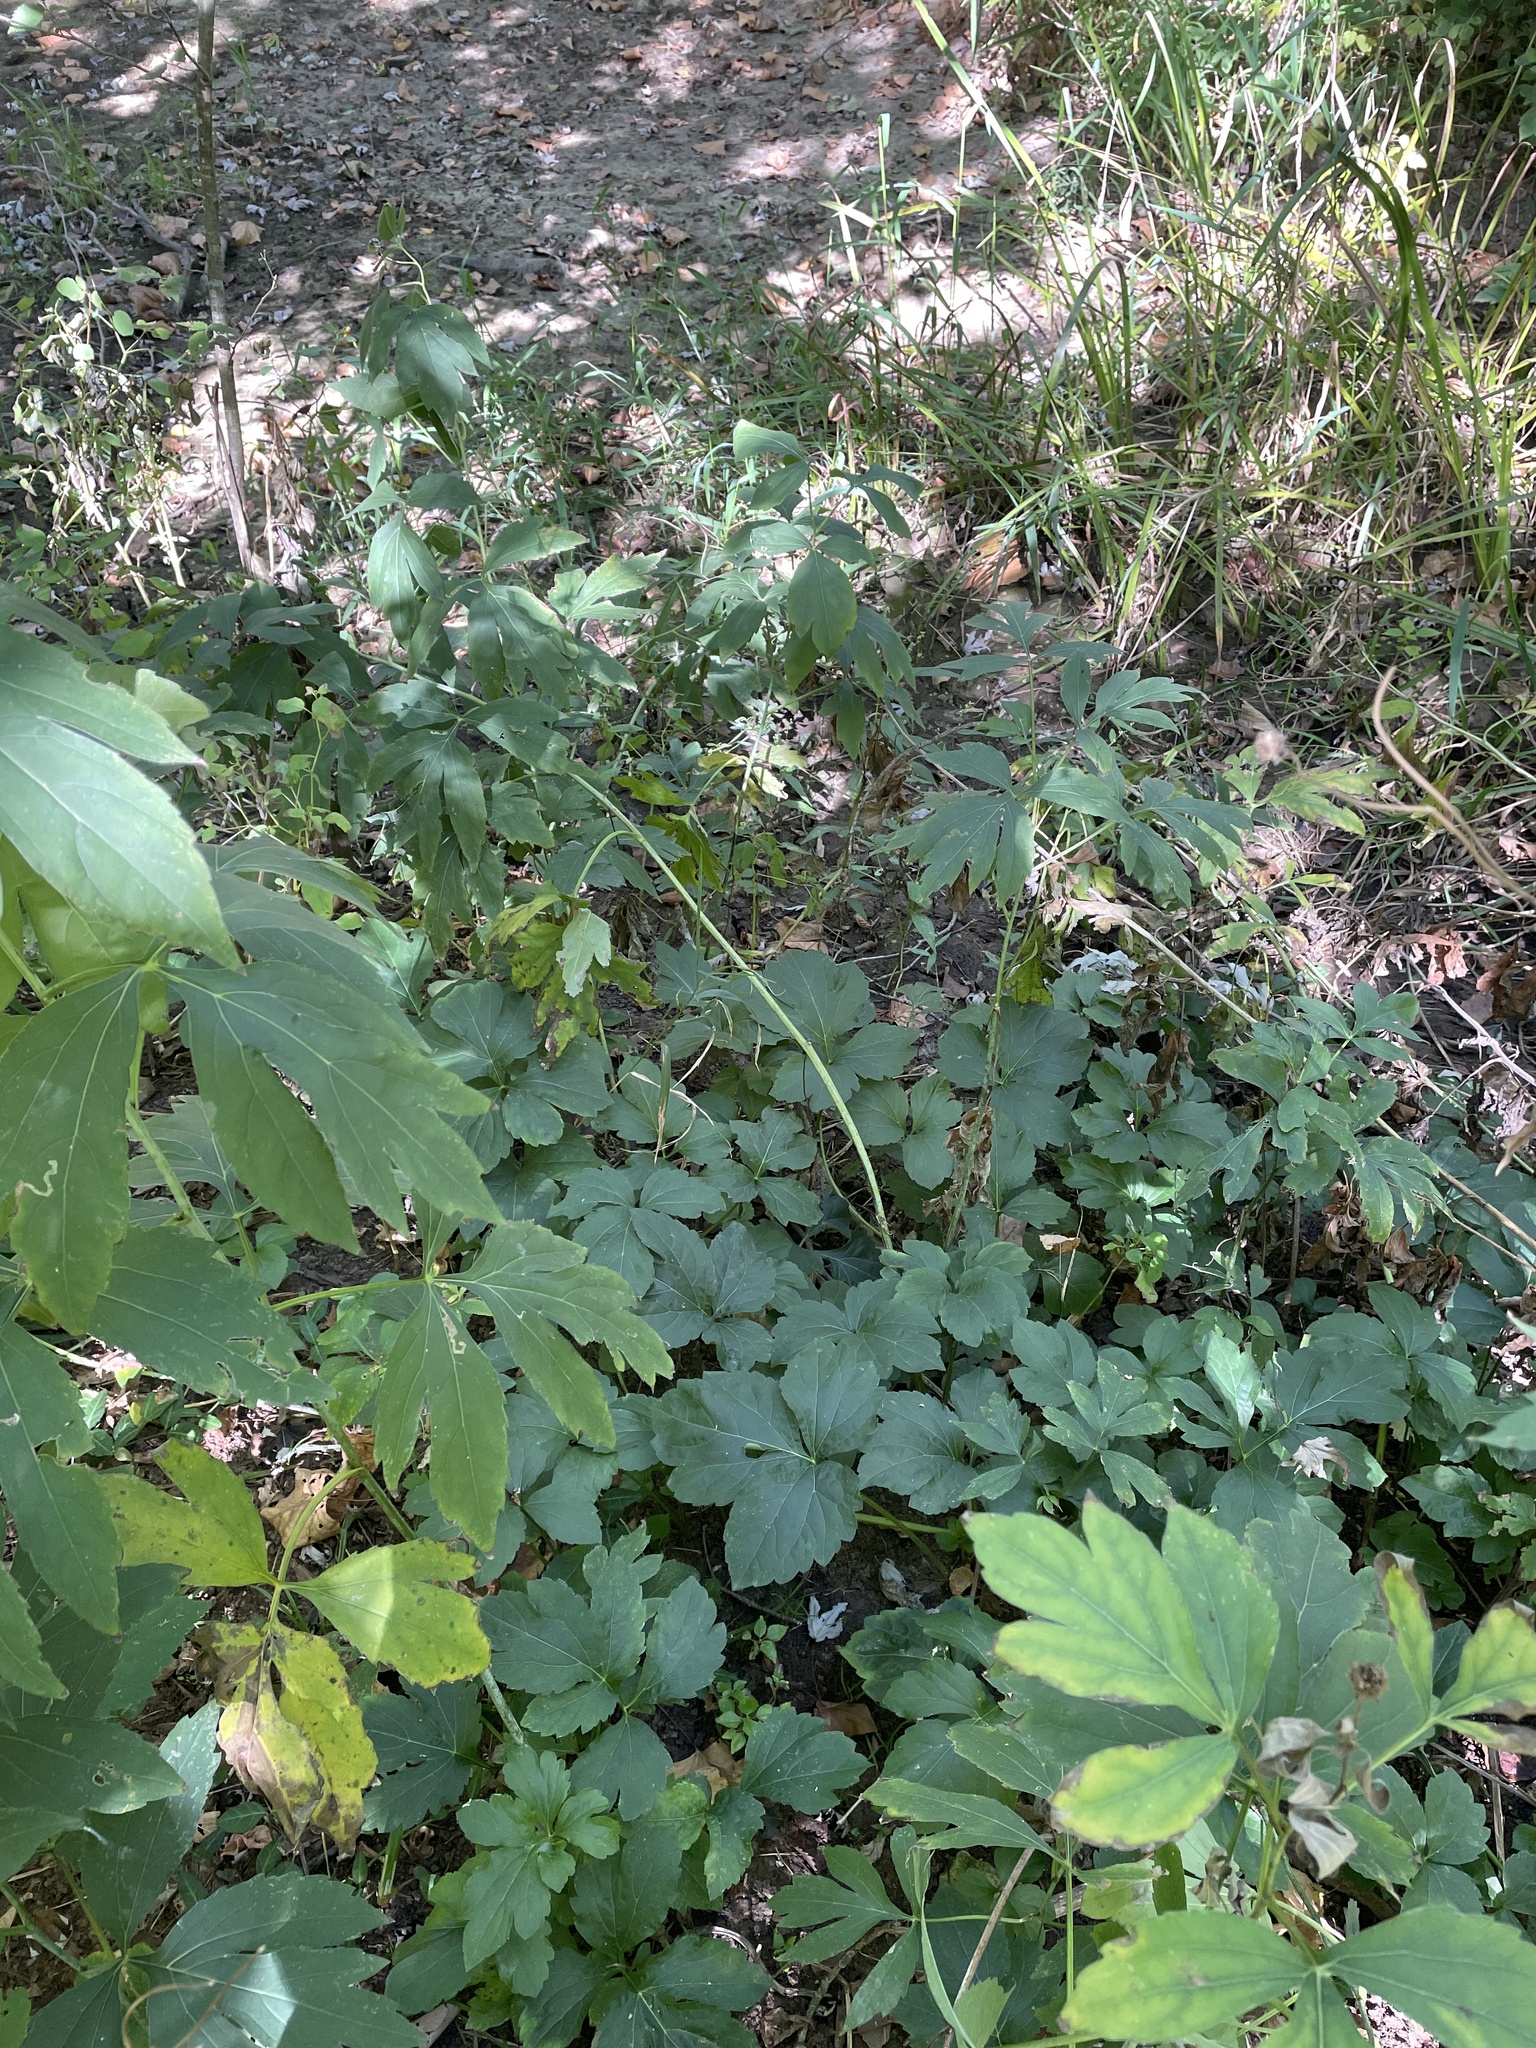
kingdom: Plantae
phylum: Tracheophyta
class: Magnoliopsida
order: Asterales
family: Asteraceae
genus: Rudbeckia
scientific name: Rudbeckia laciniata
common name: Coneflower
